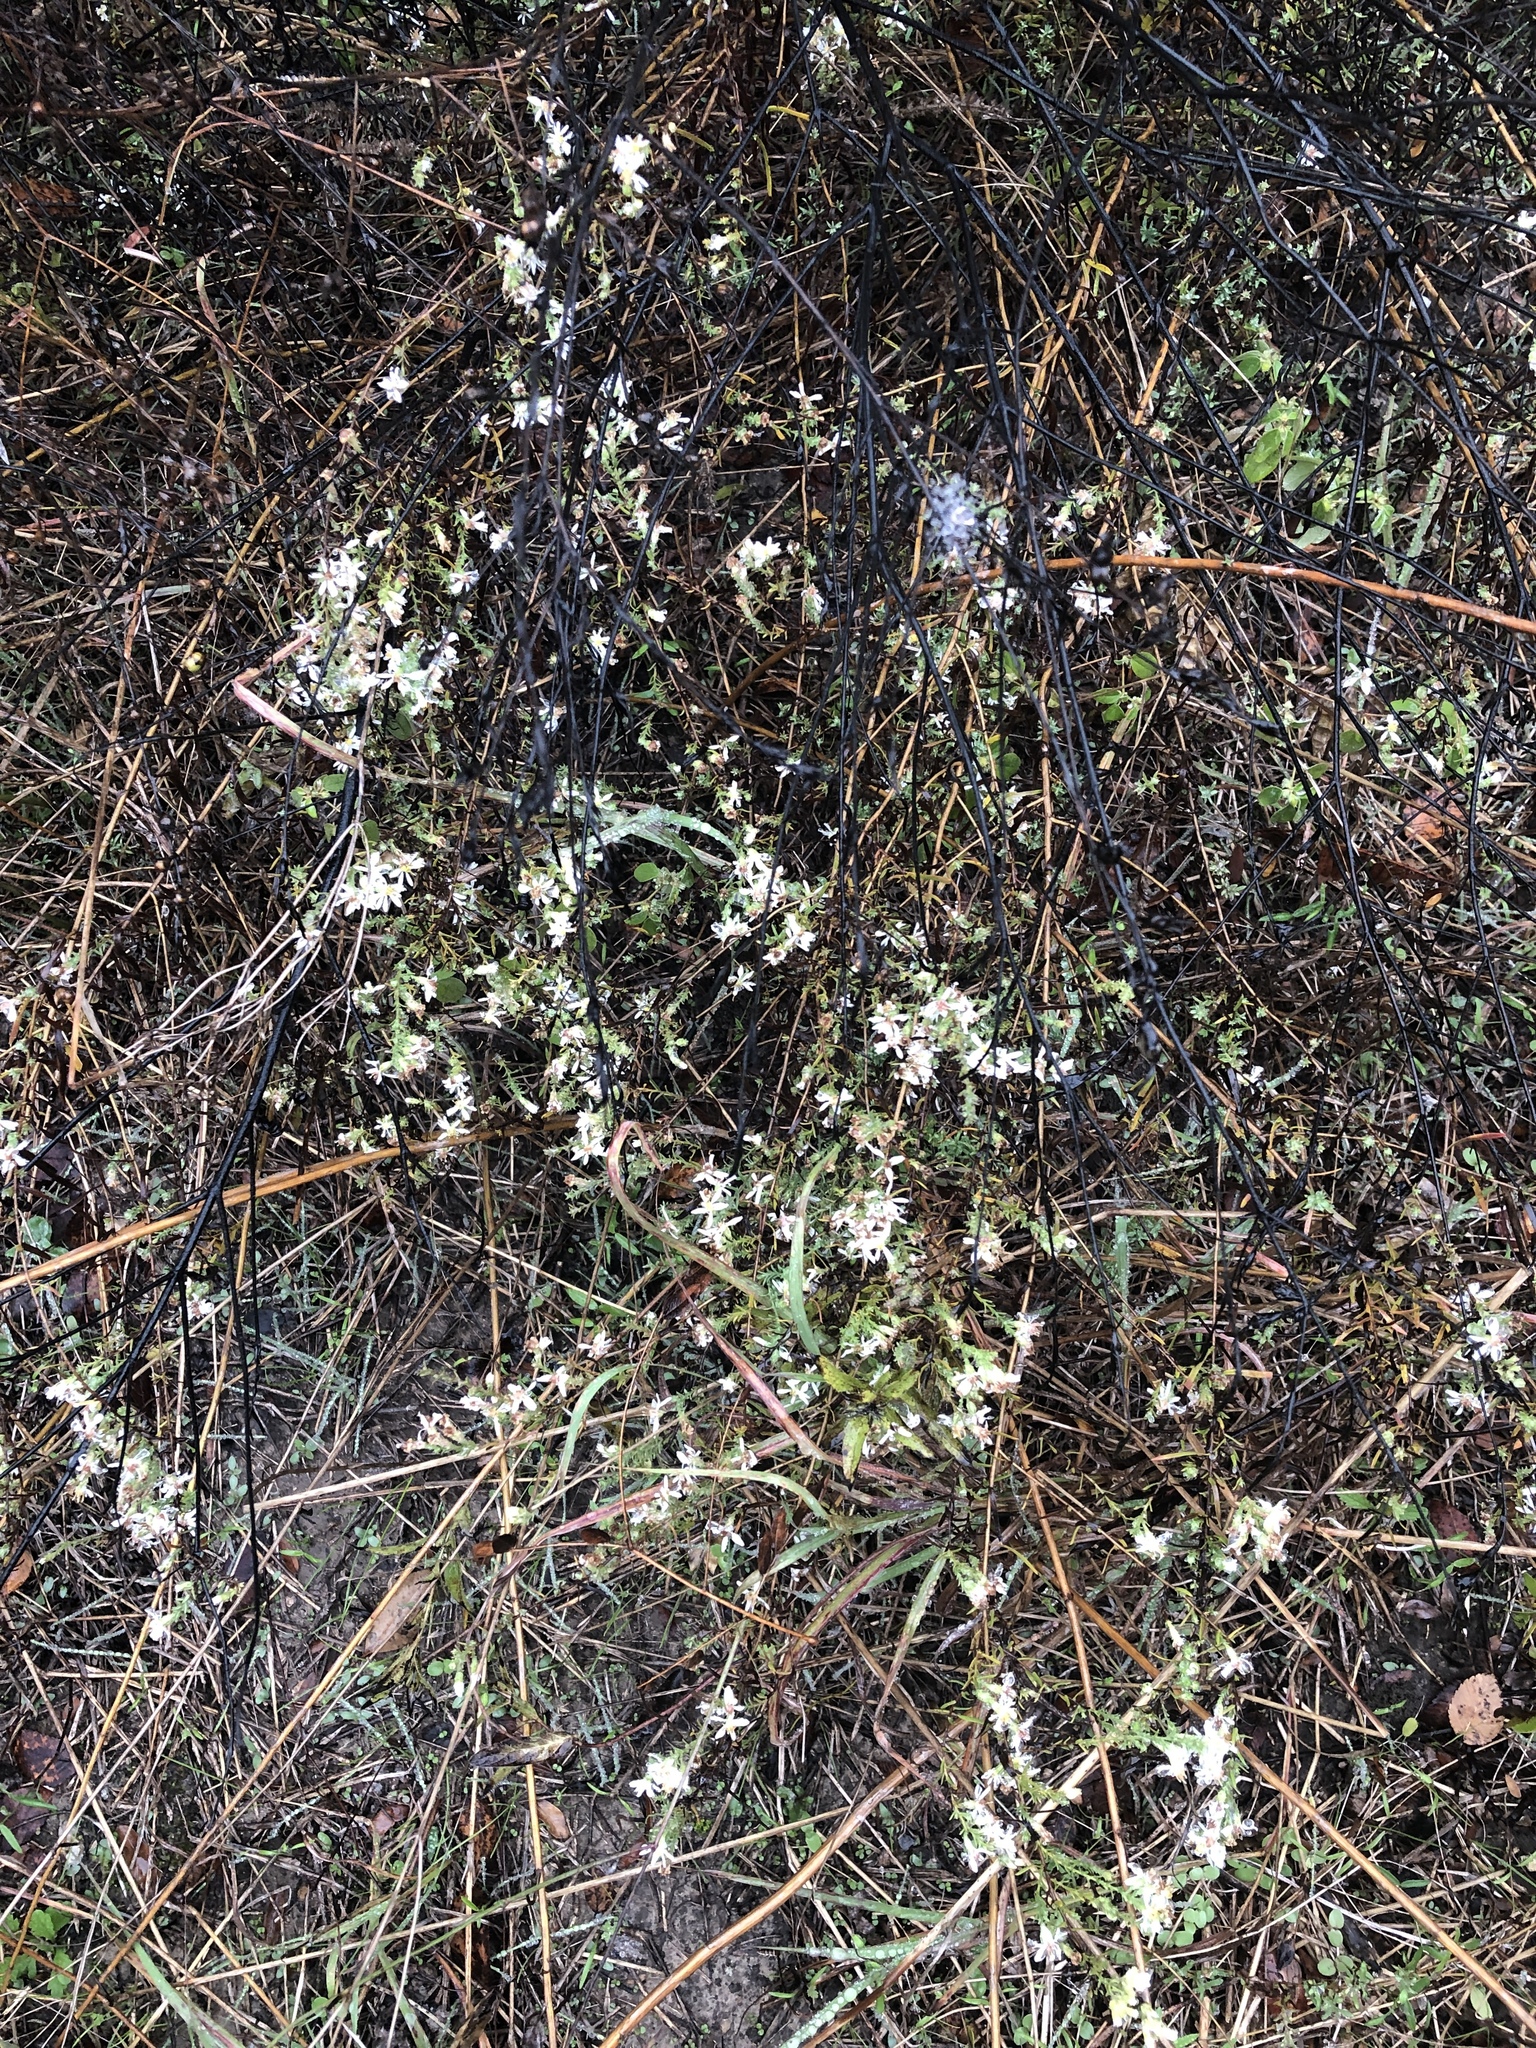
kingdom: Plantae
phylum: Tracheophyta
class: Magnoliopsida
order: Asterales
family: Asteraceae
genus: Symphyotrichum
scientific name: Symphyotrichum ericoides
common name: Heath aster
